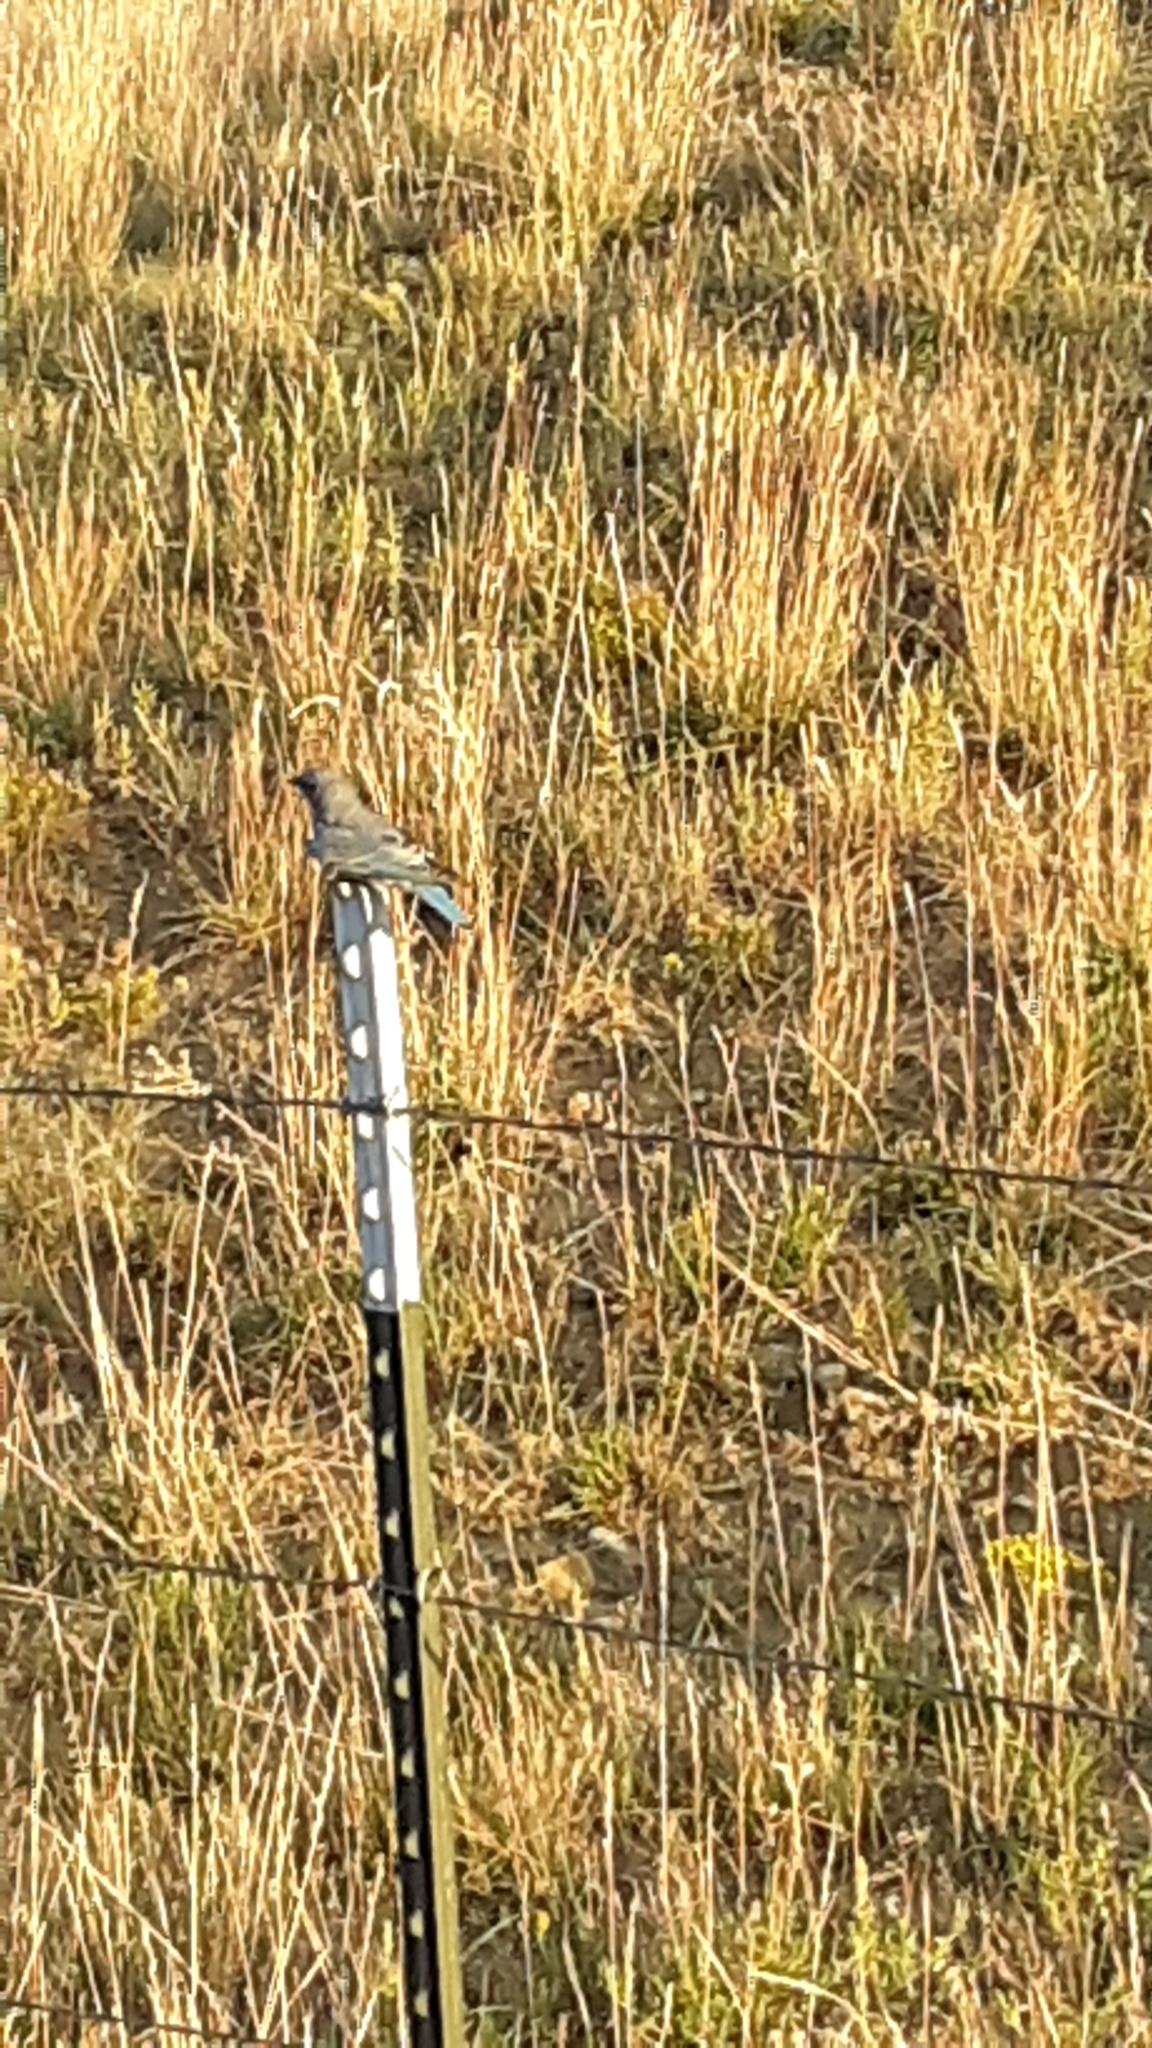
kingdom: Animalia
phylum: Chordata
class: Aves
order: Passeriformes
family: Turdidae
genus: Sialia
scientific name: Sialia currucoides
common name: Mountain bluebird
